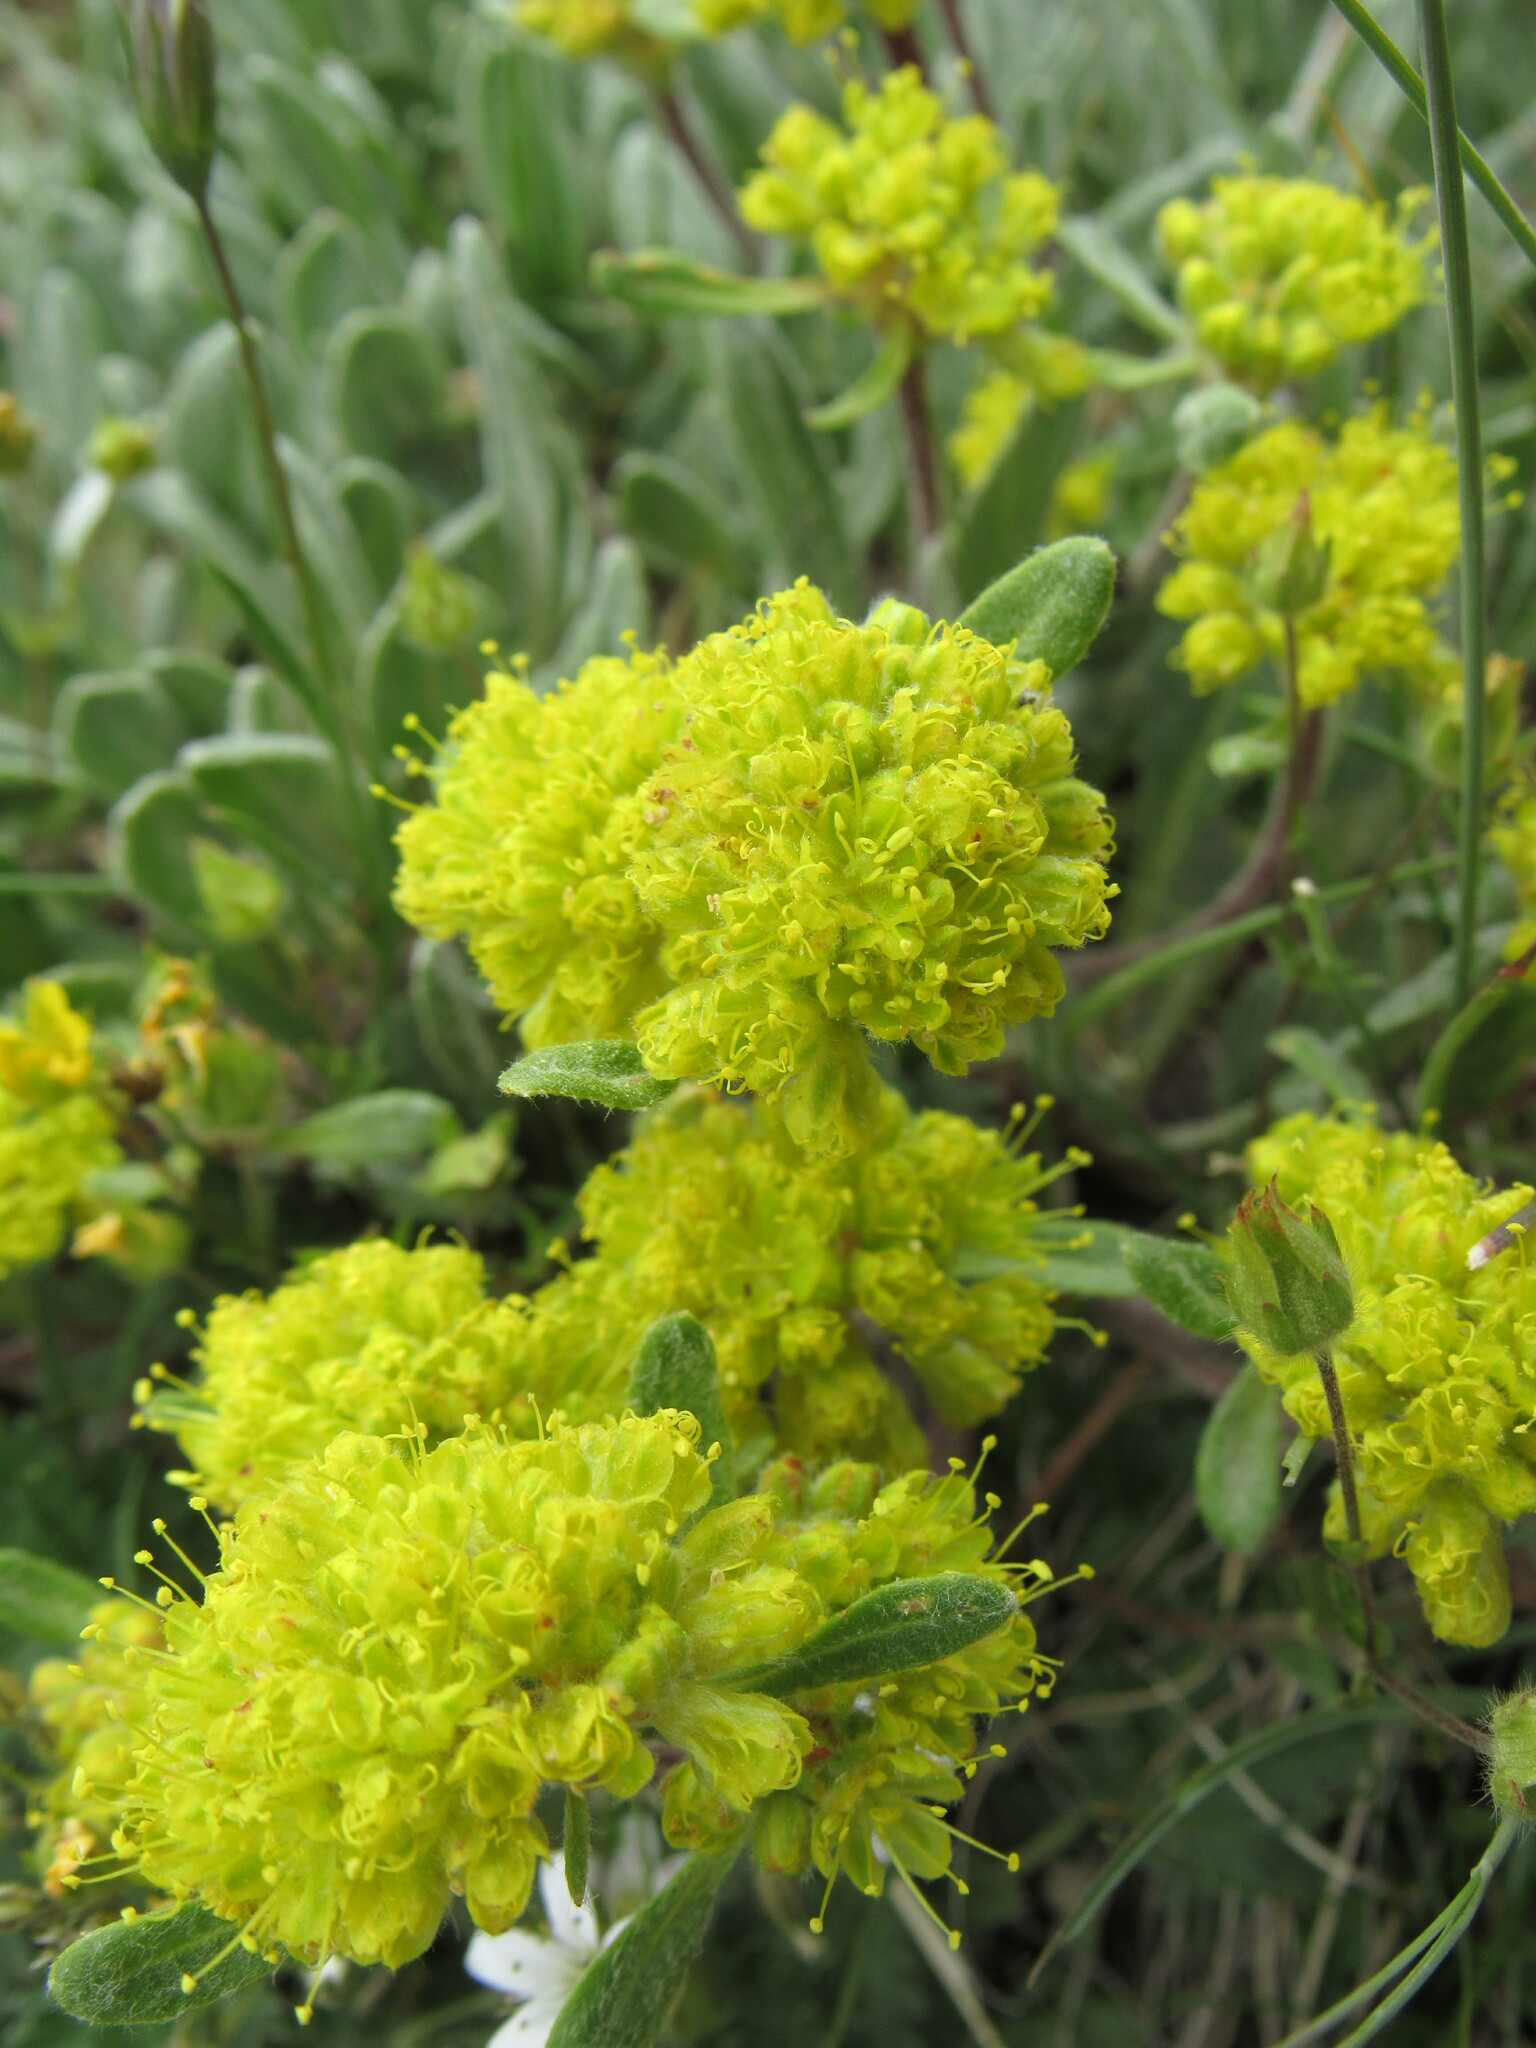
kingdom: Plantae
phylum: Tracheophyta
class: Magnoliopsida
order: Caryophyllales
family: Polygonaceae
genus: Eriogonum
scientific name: Eriogonum umbellatum
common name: Sulfur-buckwheat
